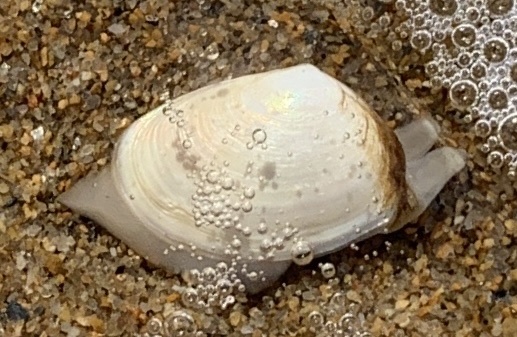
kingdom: Animalia
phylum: Mollusca
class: Bivalvia
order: Venerida
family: Mesodesmatidae
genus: Mesodesma
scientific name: Mesodesma arctatum
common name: Compressed clam
